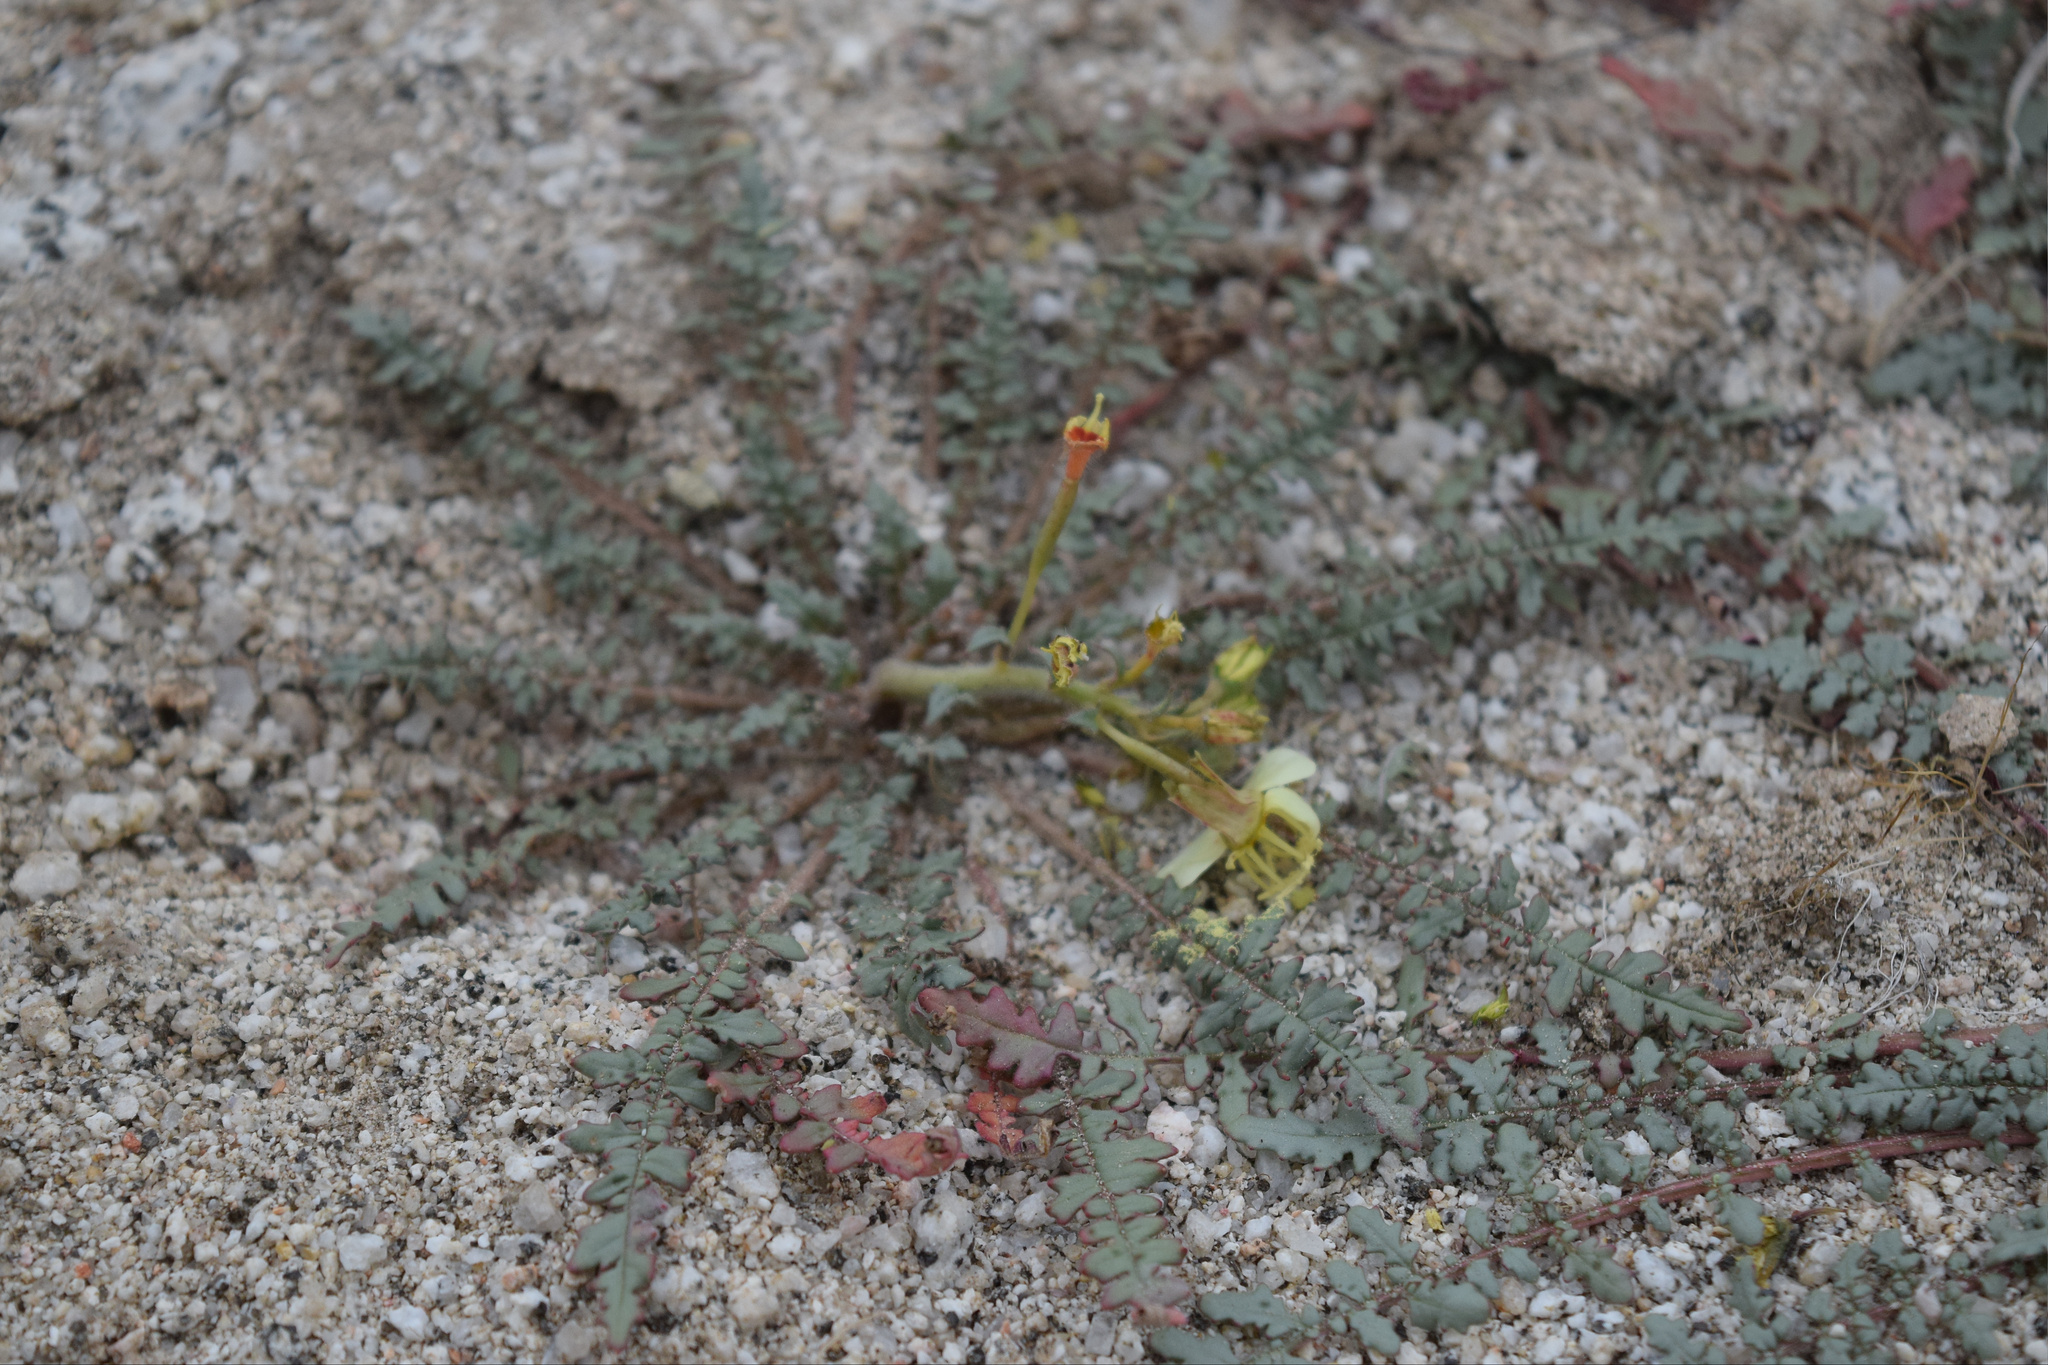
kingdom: Plantae
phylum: Tracheophyta
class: Magnoliopsida
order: Myrtales
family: Onagraceae
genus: Chylismia
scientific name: Chylismia claviformis
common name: Browneyes
